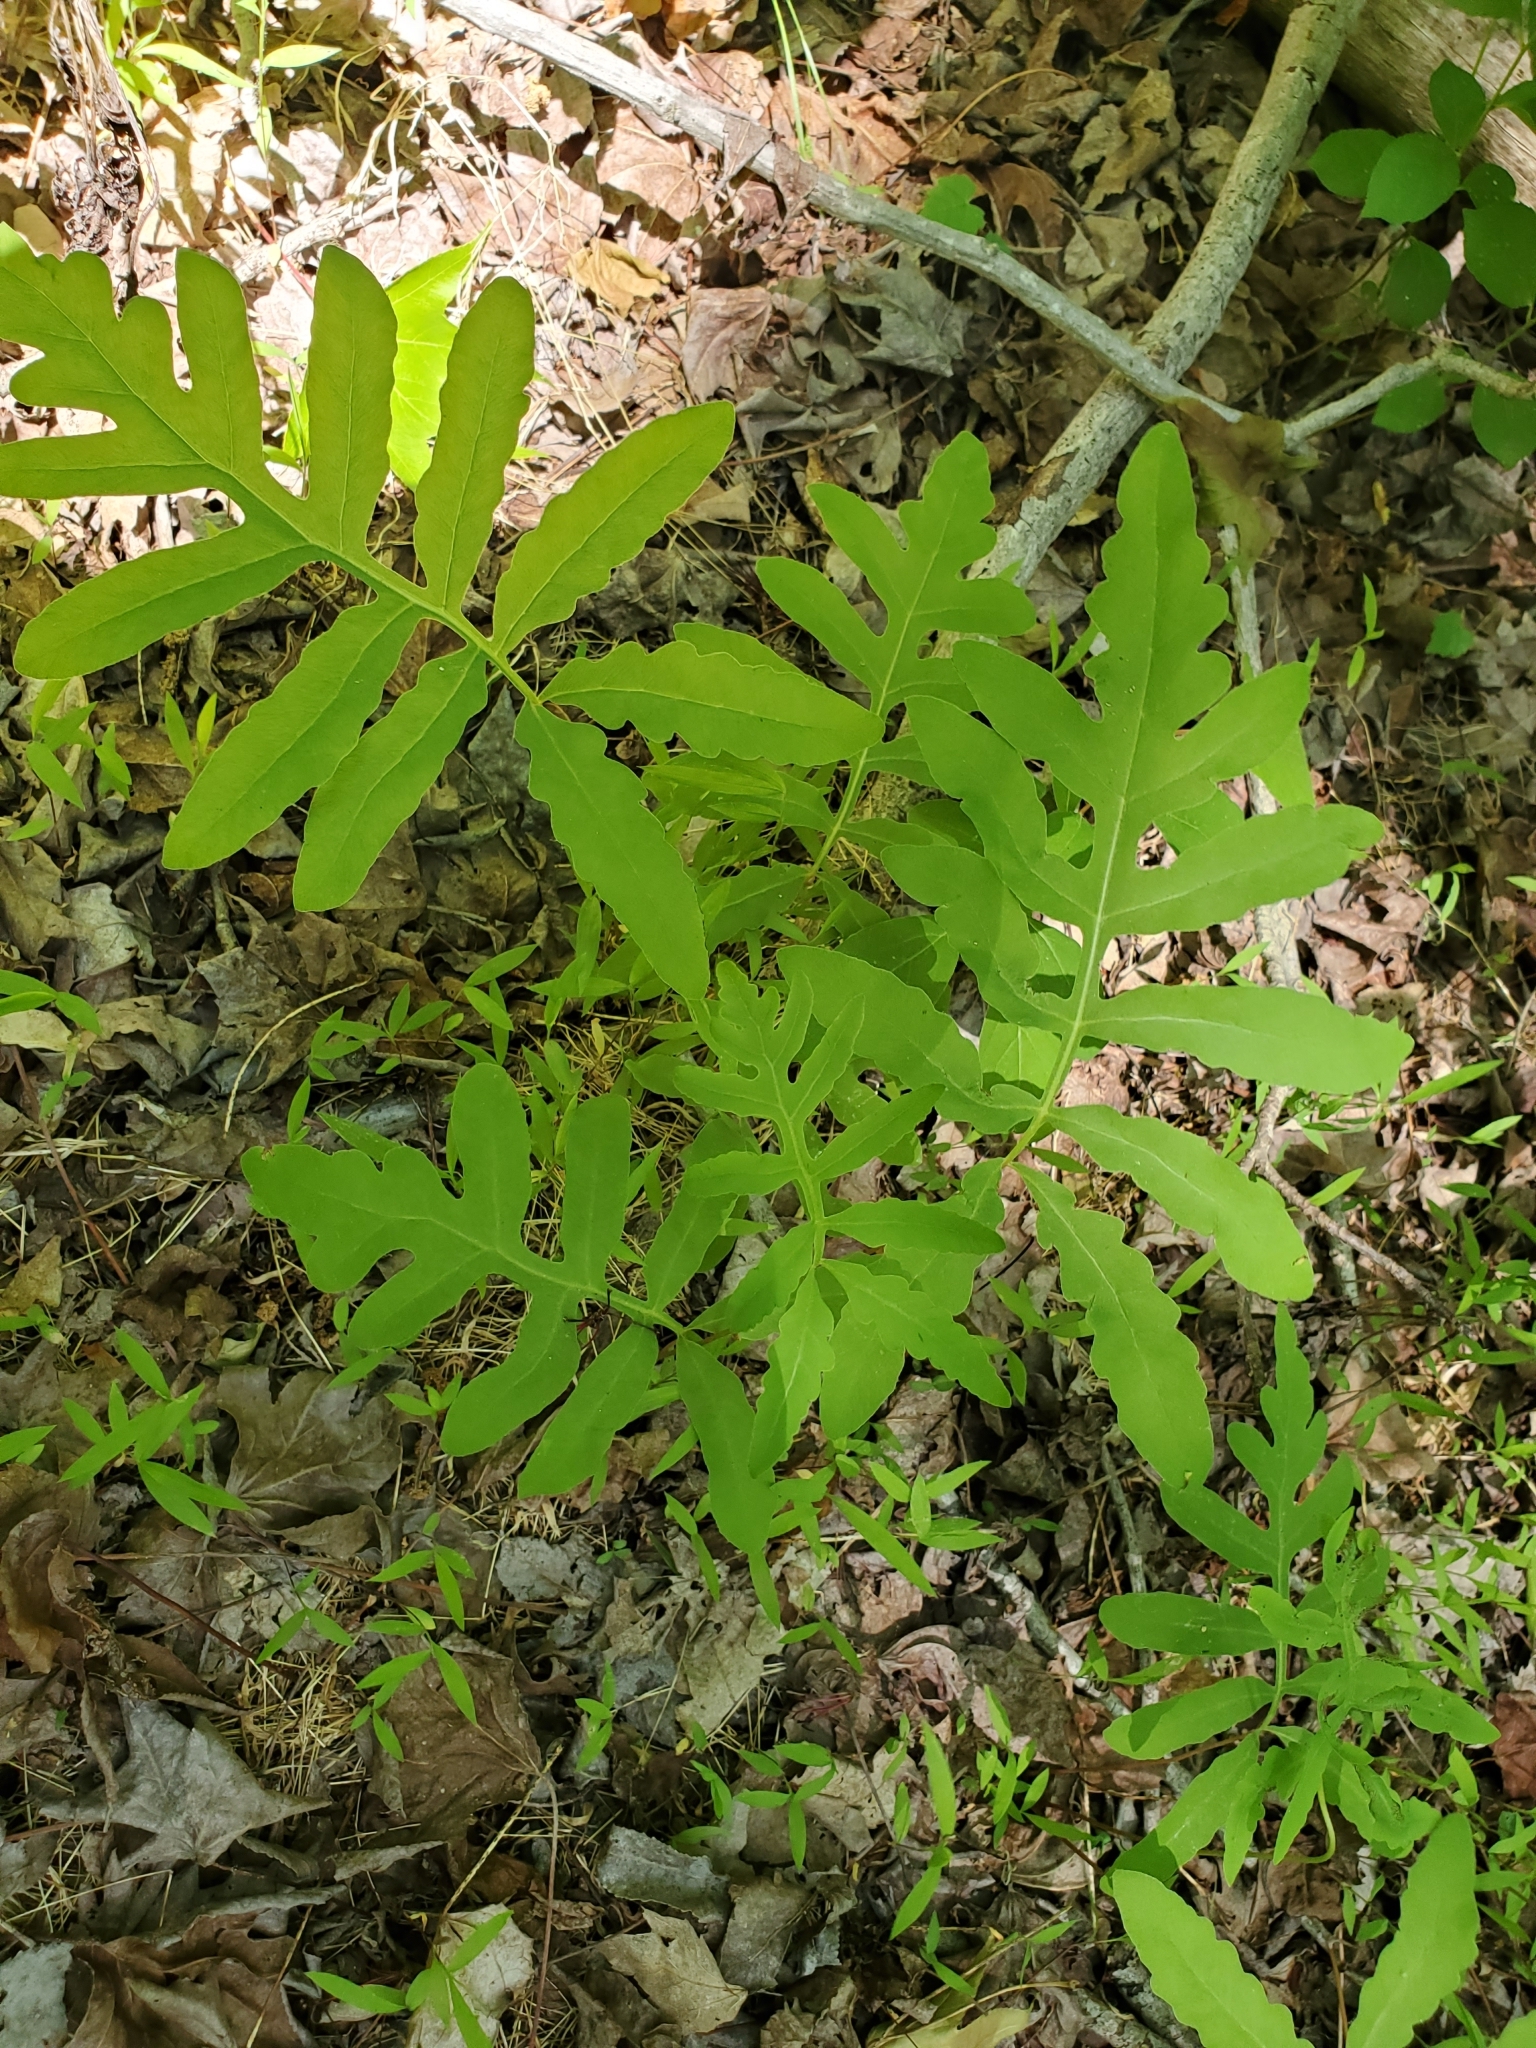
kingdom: Plantae
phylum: Tracheophyta
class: Polypodiopsida
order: Polypodiales
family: Onocleaceae
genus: Onoclea
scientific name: Onoclea sensibilis
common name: Sensitive fern
